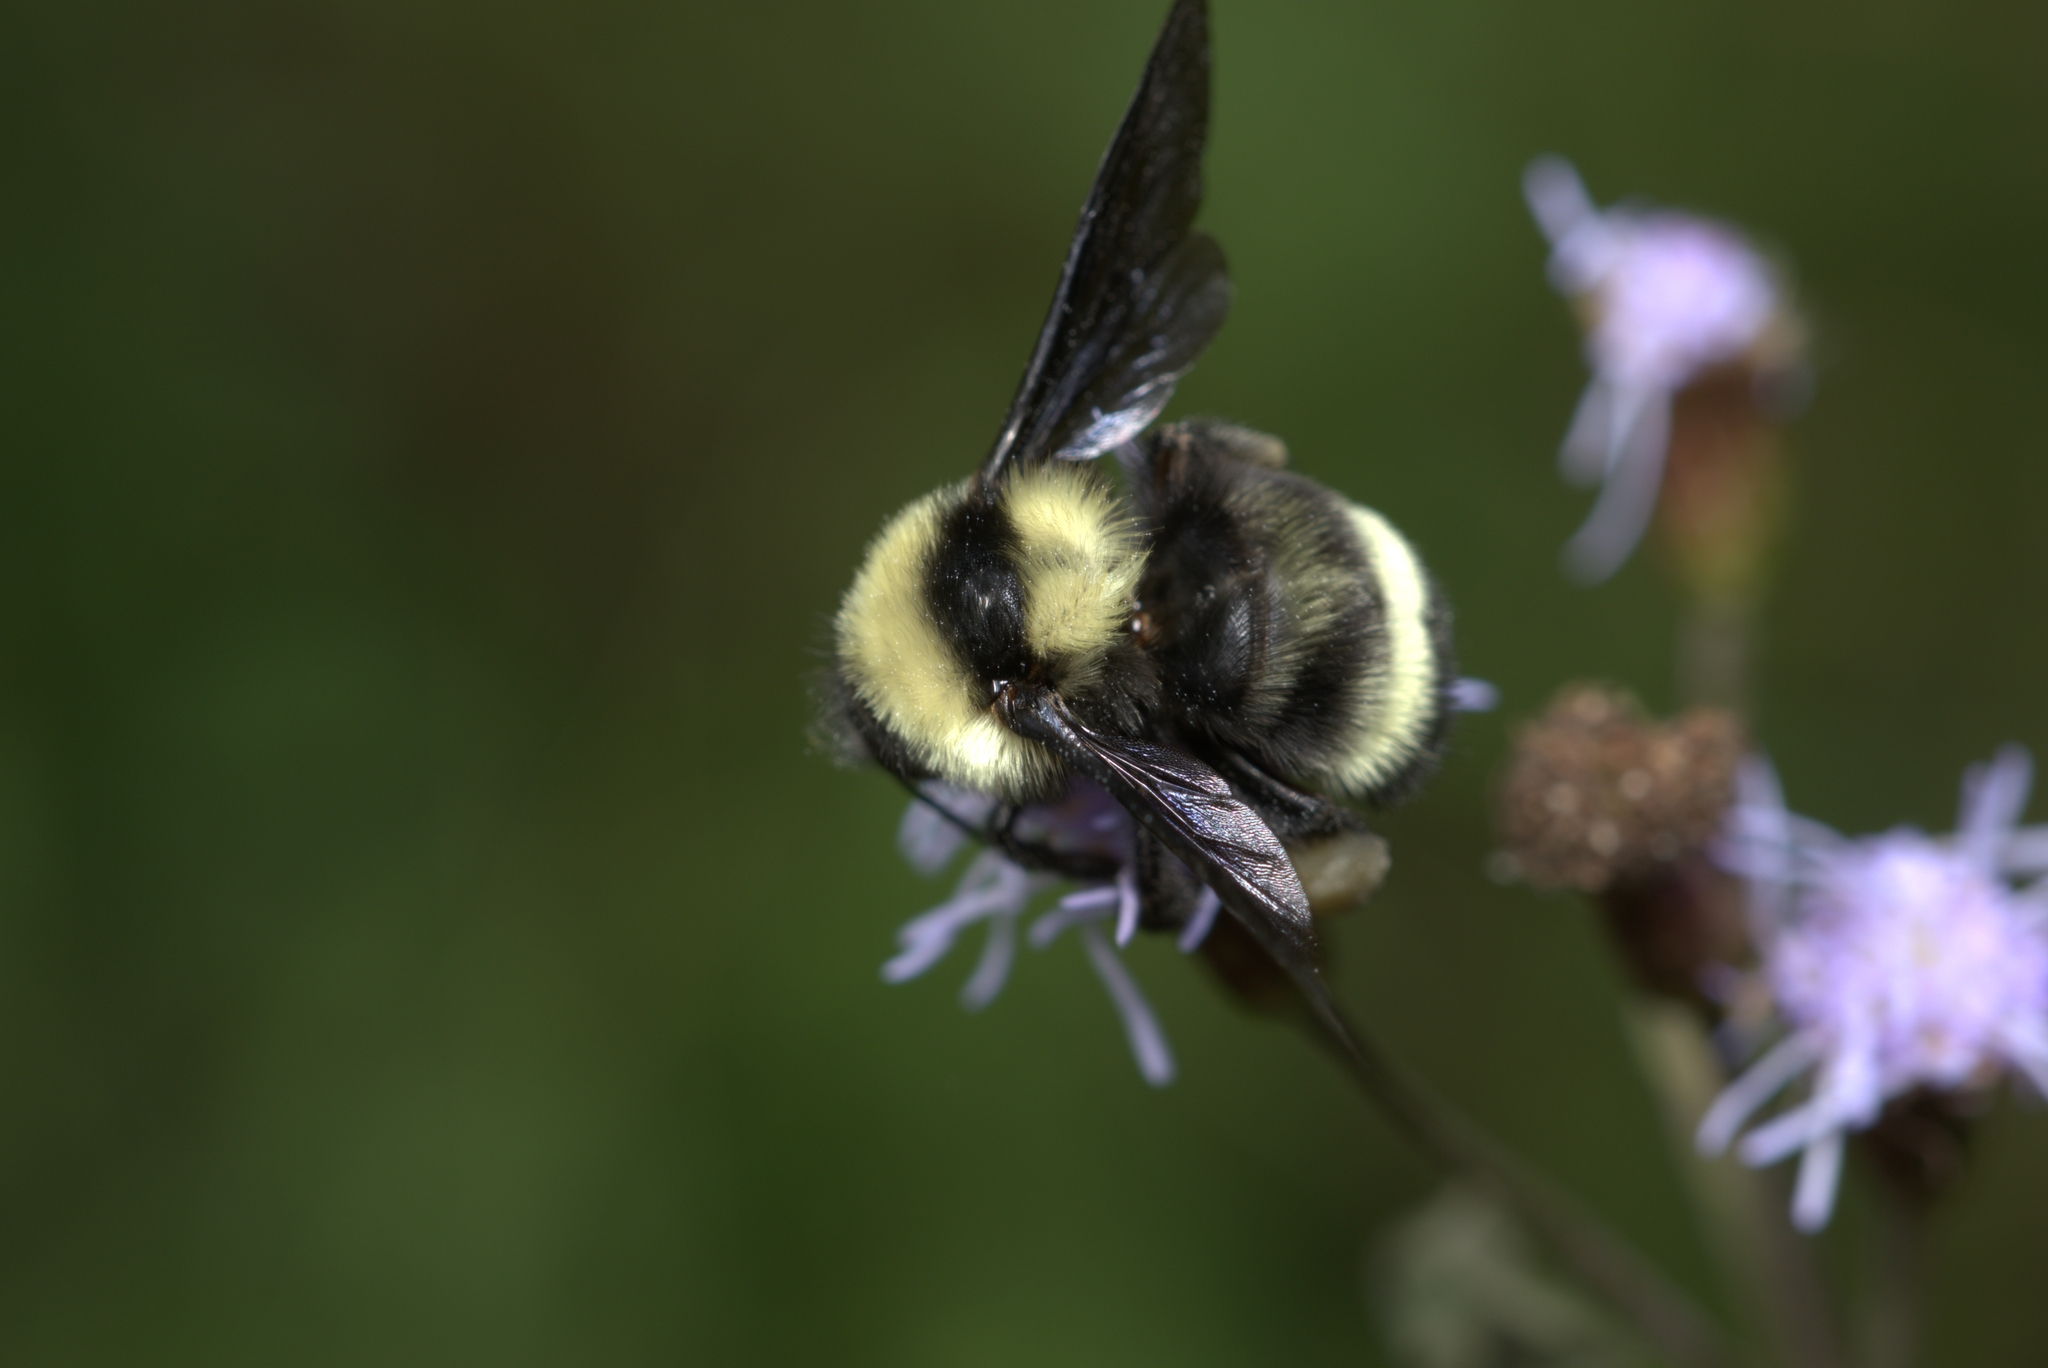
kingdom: Animalia
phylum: Arthropoda
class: Insecta
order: Hymenoptera
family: Apidae
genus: Bombus
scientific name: Bombus brasiliensis
